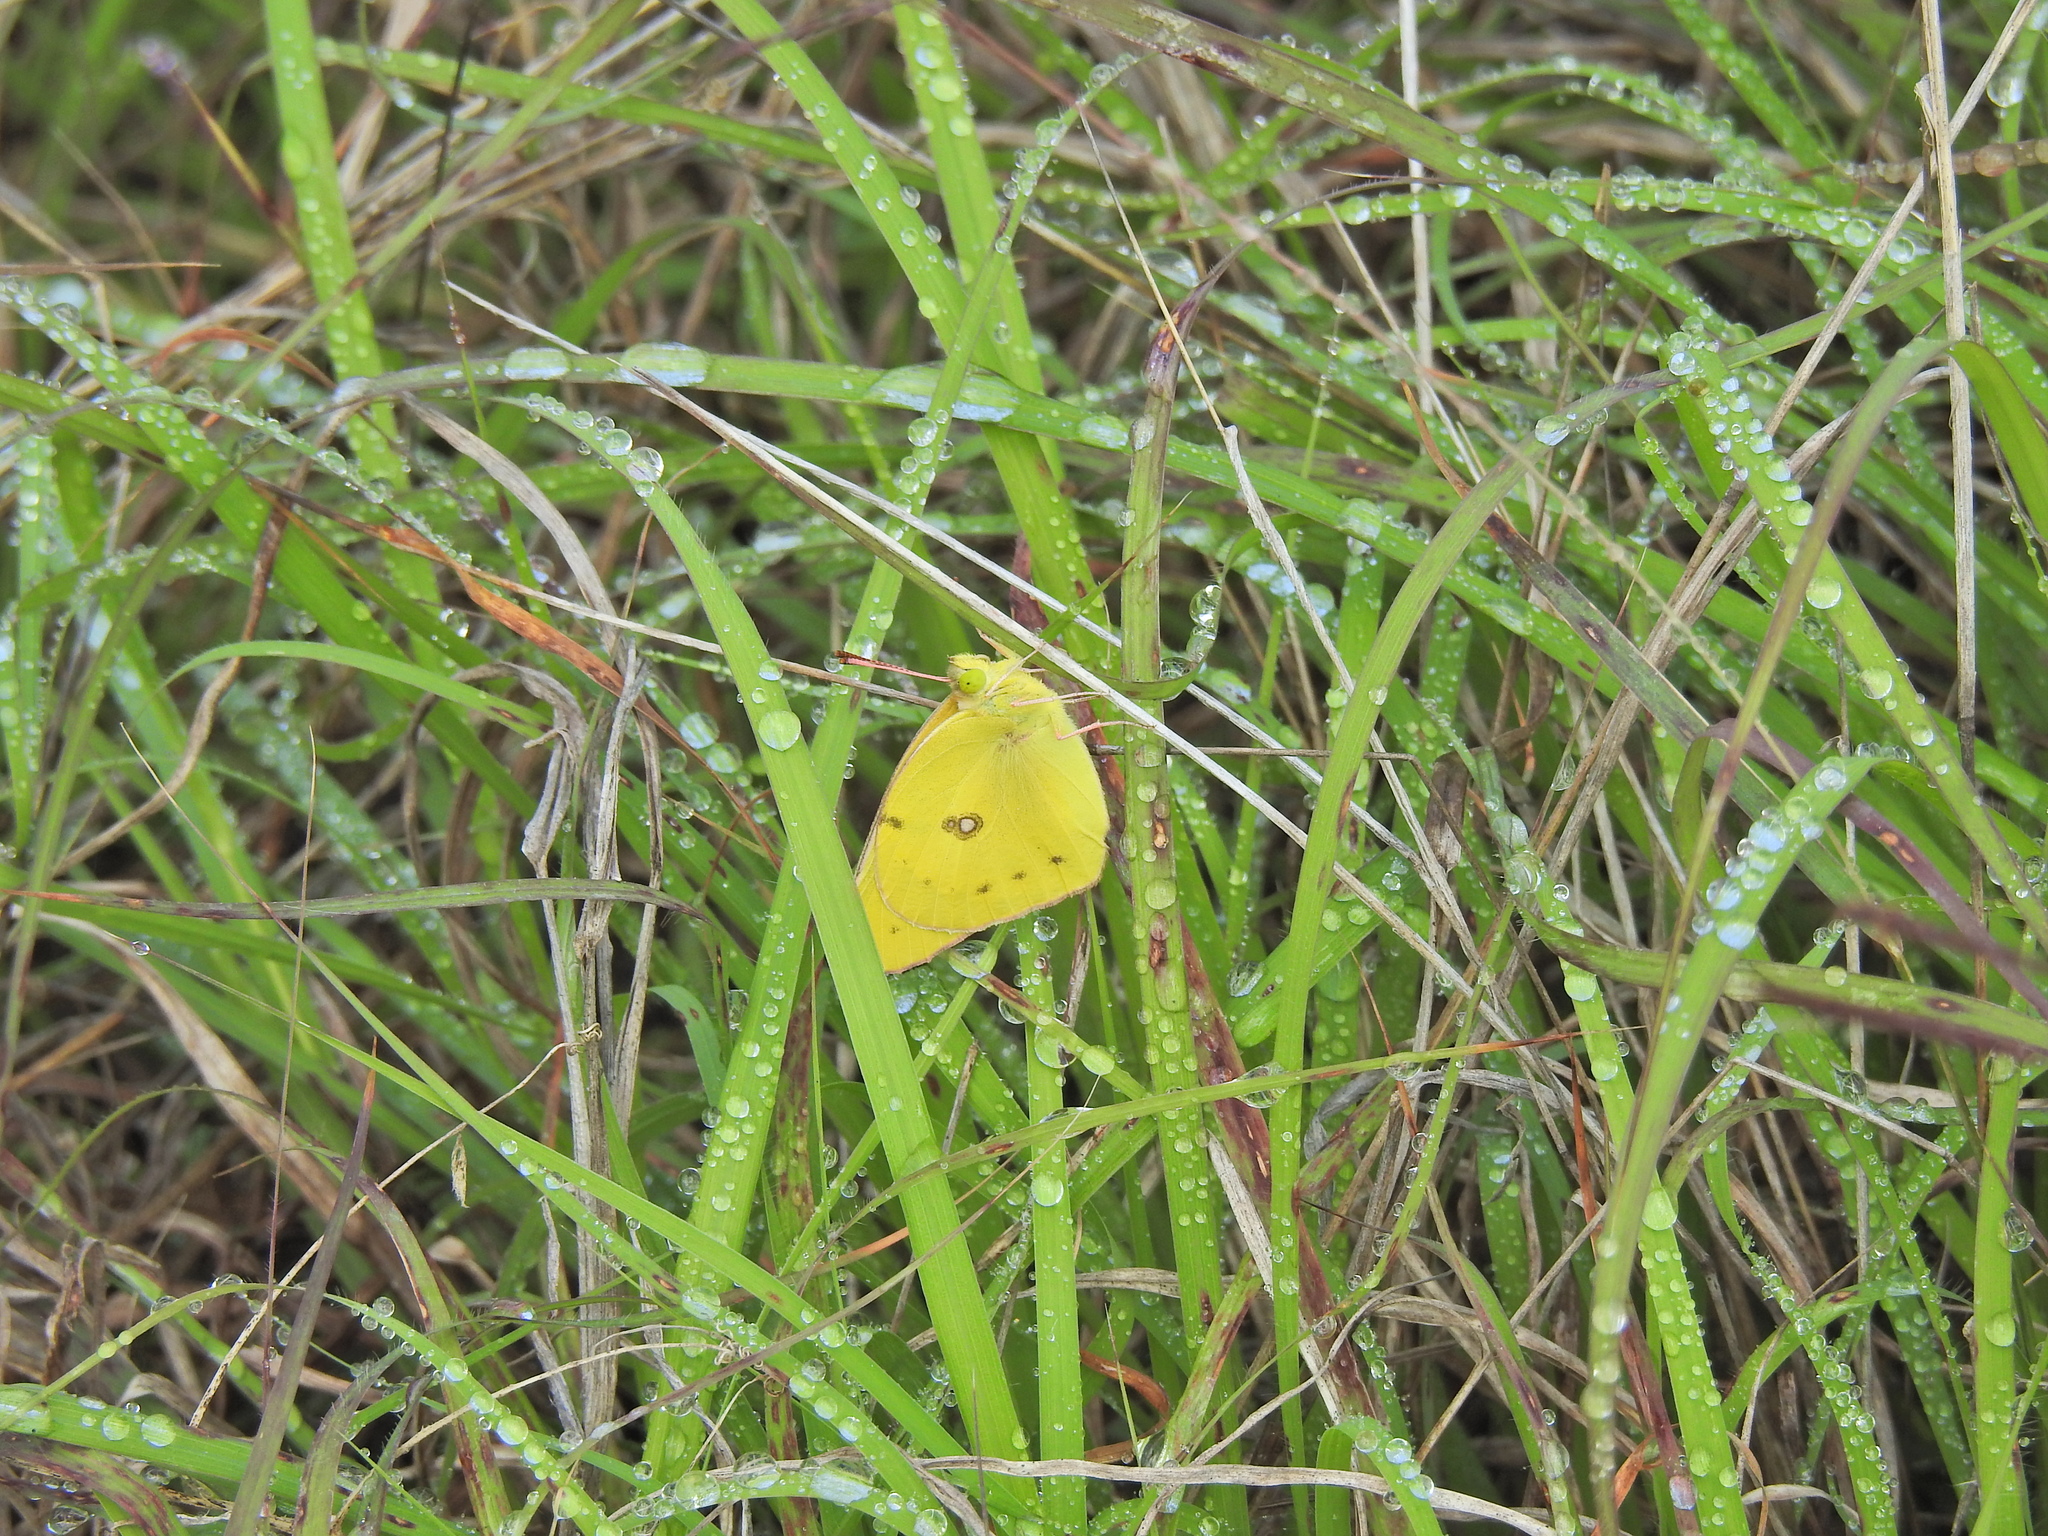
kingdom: Animalia
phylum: Arthropoda
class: Insecta
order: Lepidoptera
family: Pieridae
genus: Colias
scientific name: Colias eurytheme
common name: Alfalfa butterfly
